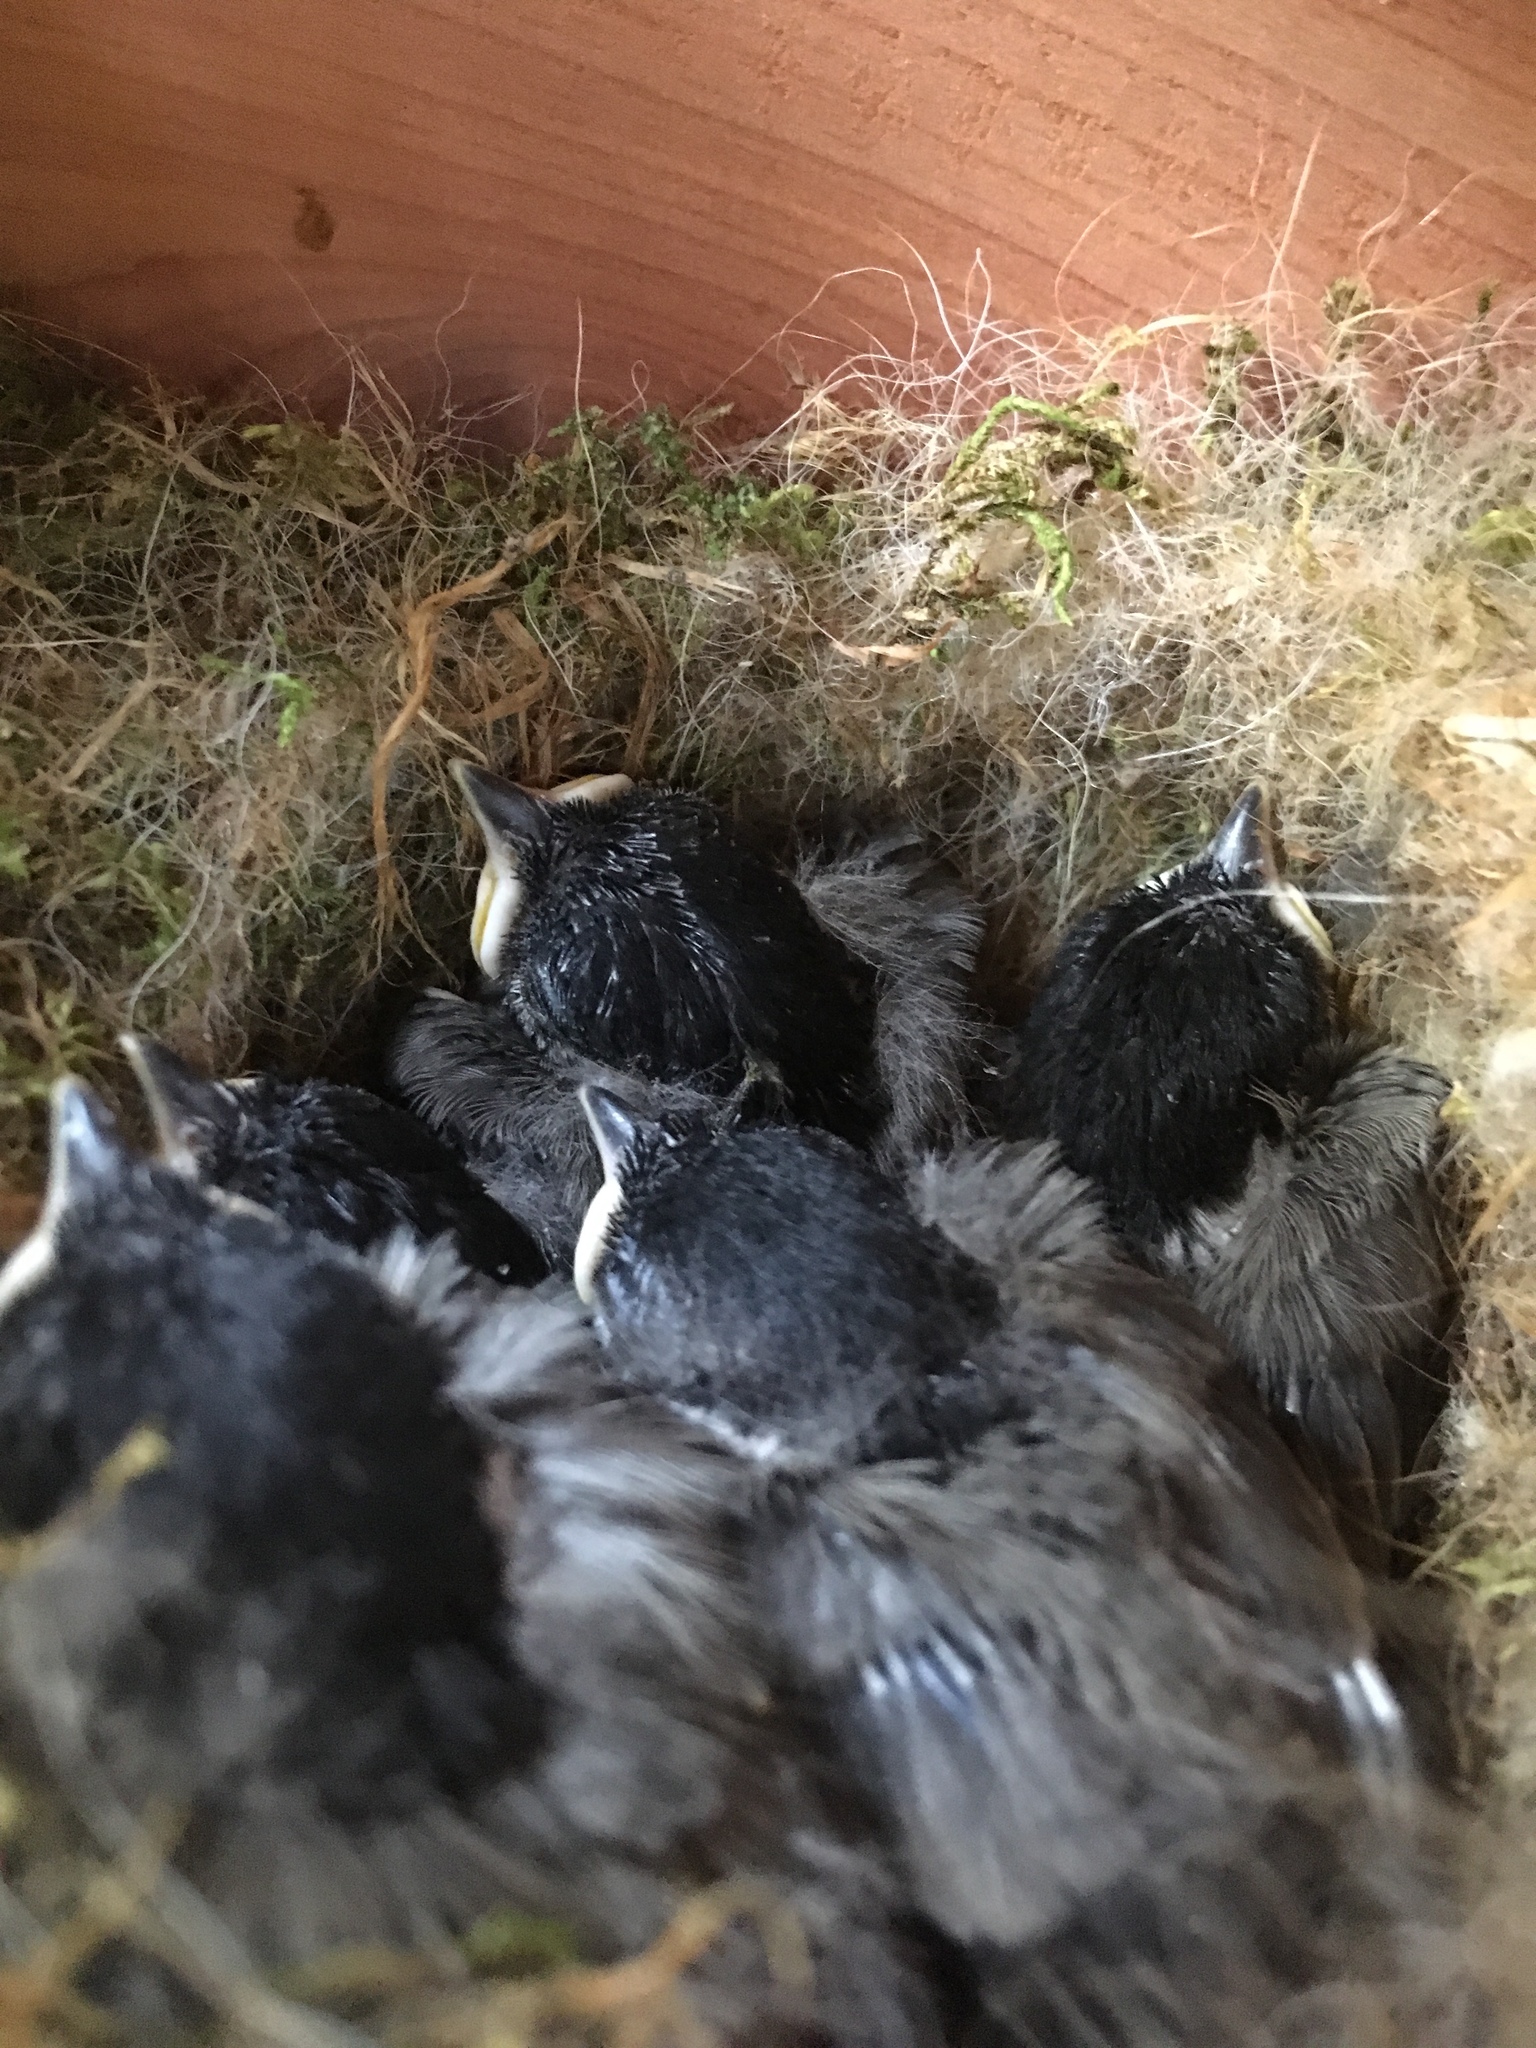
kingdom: Animalia
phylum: Chordata
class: Aves
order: Passeriformes
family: Paridae
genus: Poecile
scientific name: Poecile carolinensis
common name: Carolina chickadee
